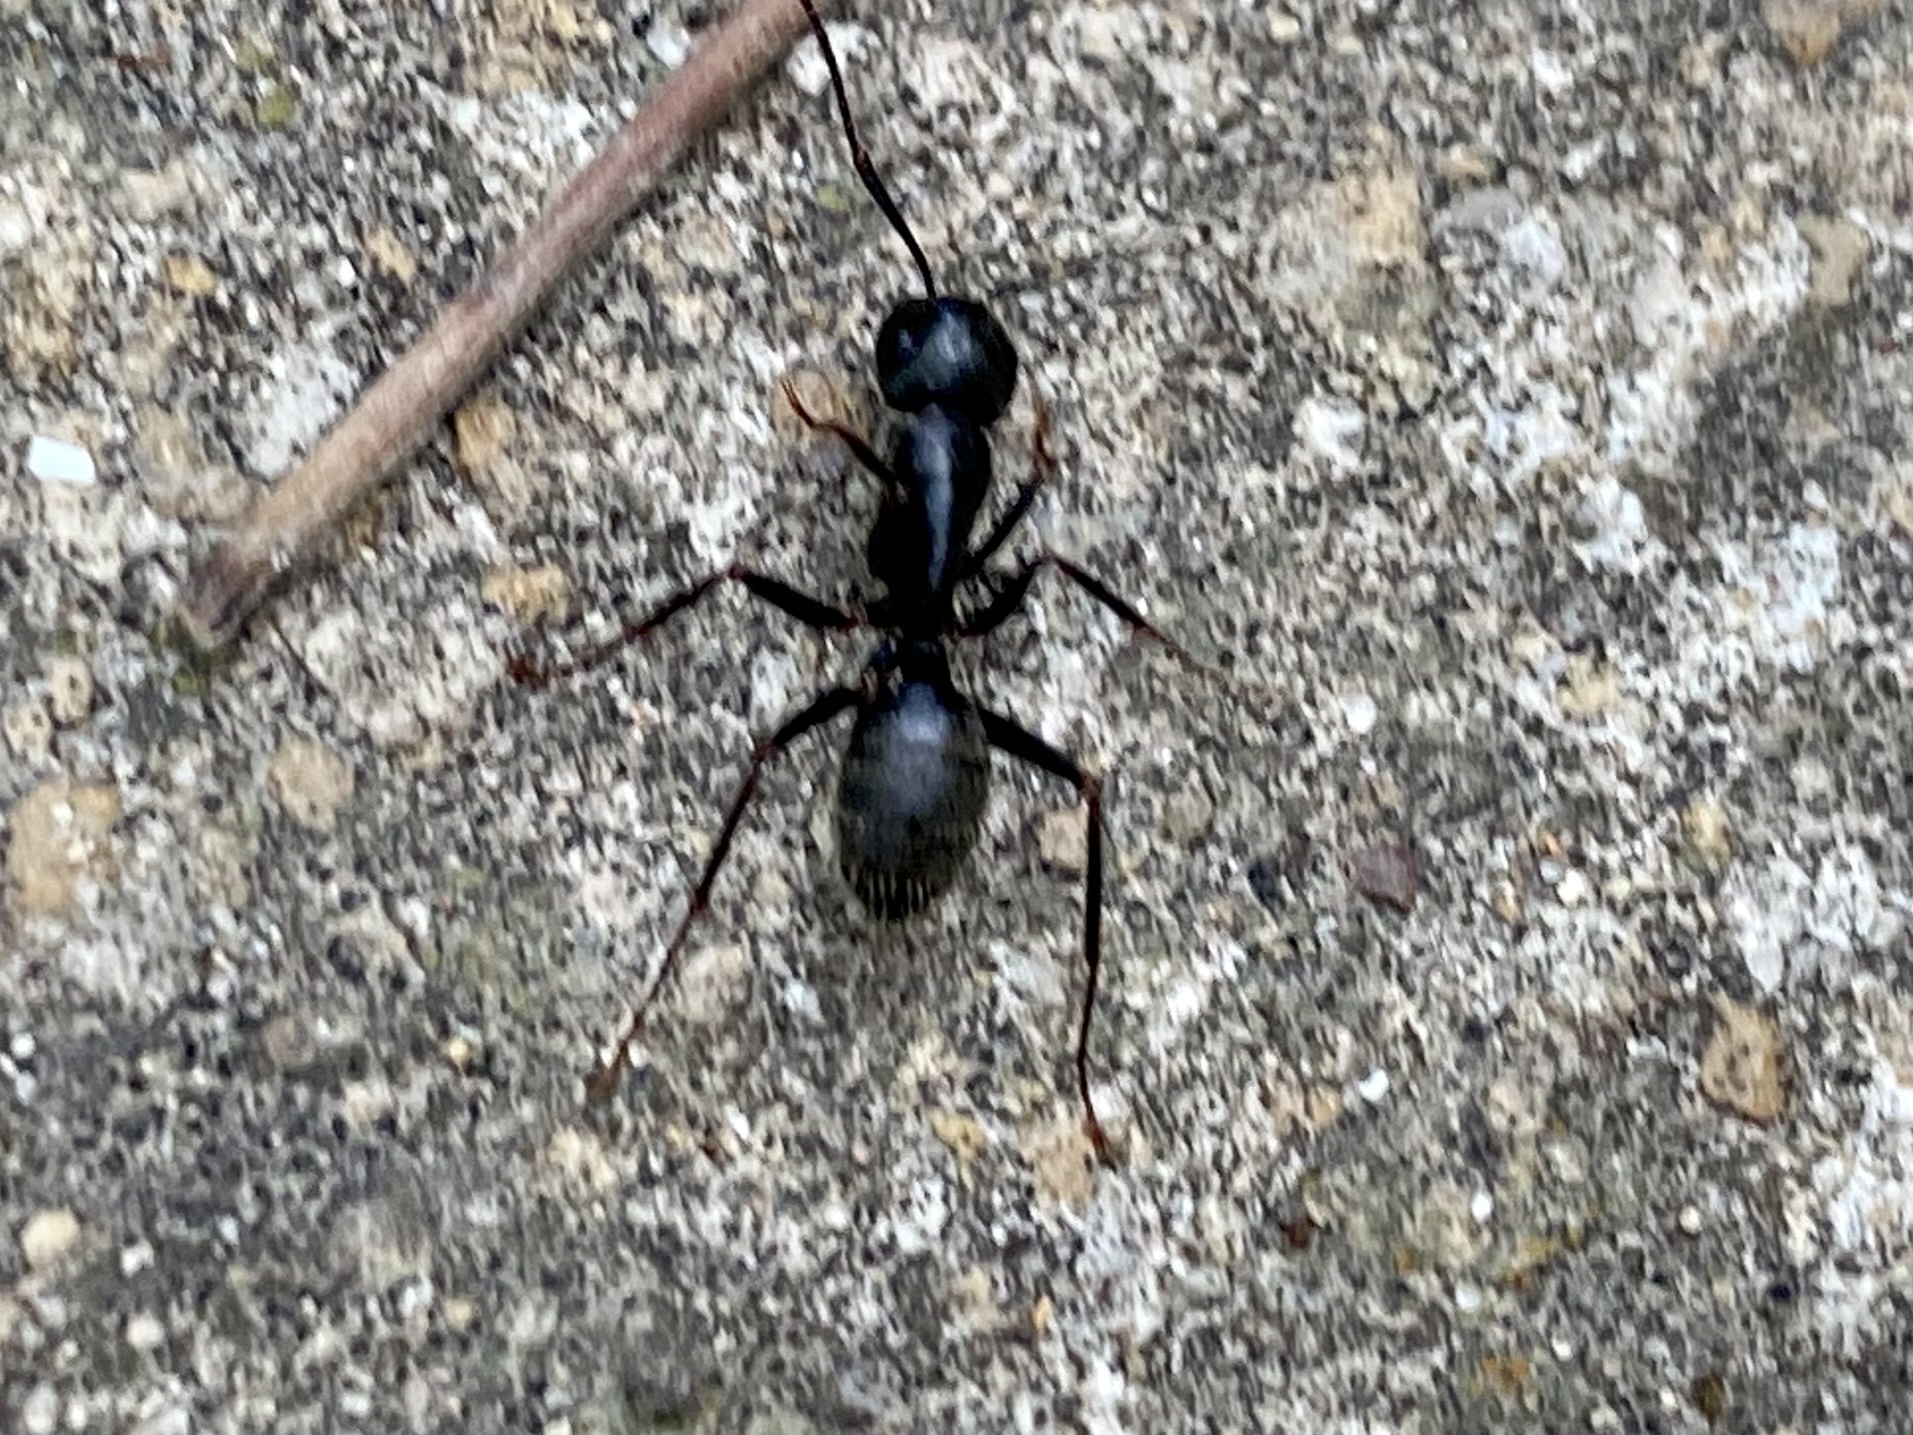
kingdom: Animalia
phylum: Arthropoda
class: Insecta
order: Hymenoptera
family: Formicidae
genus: Camponotus
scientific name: Camponotus pennsylvanicus
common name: Black carpenter ant
